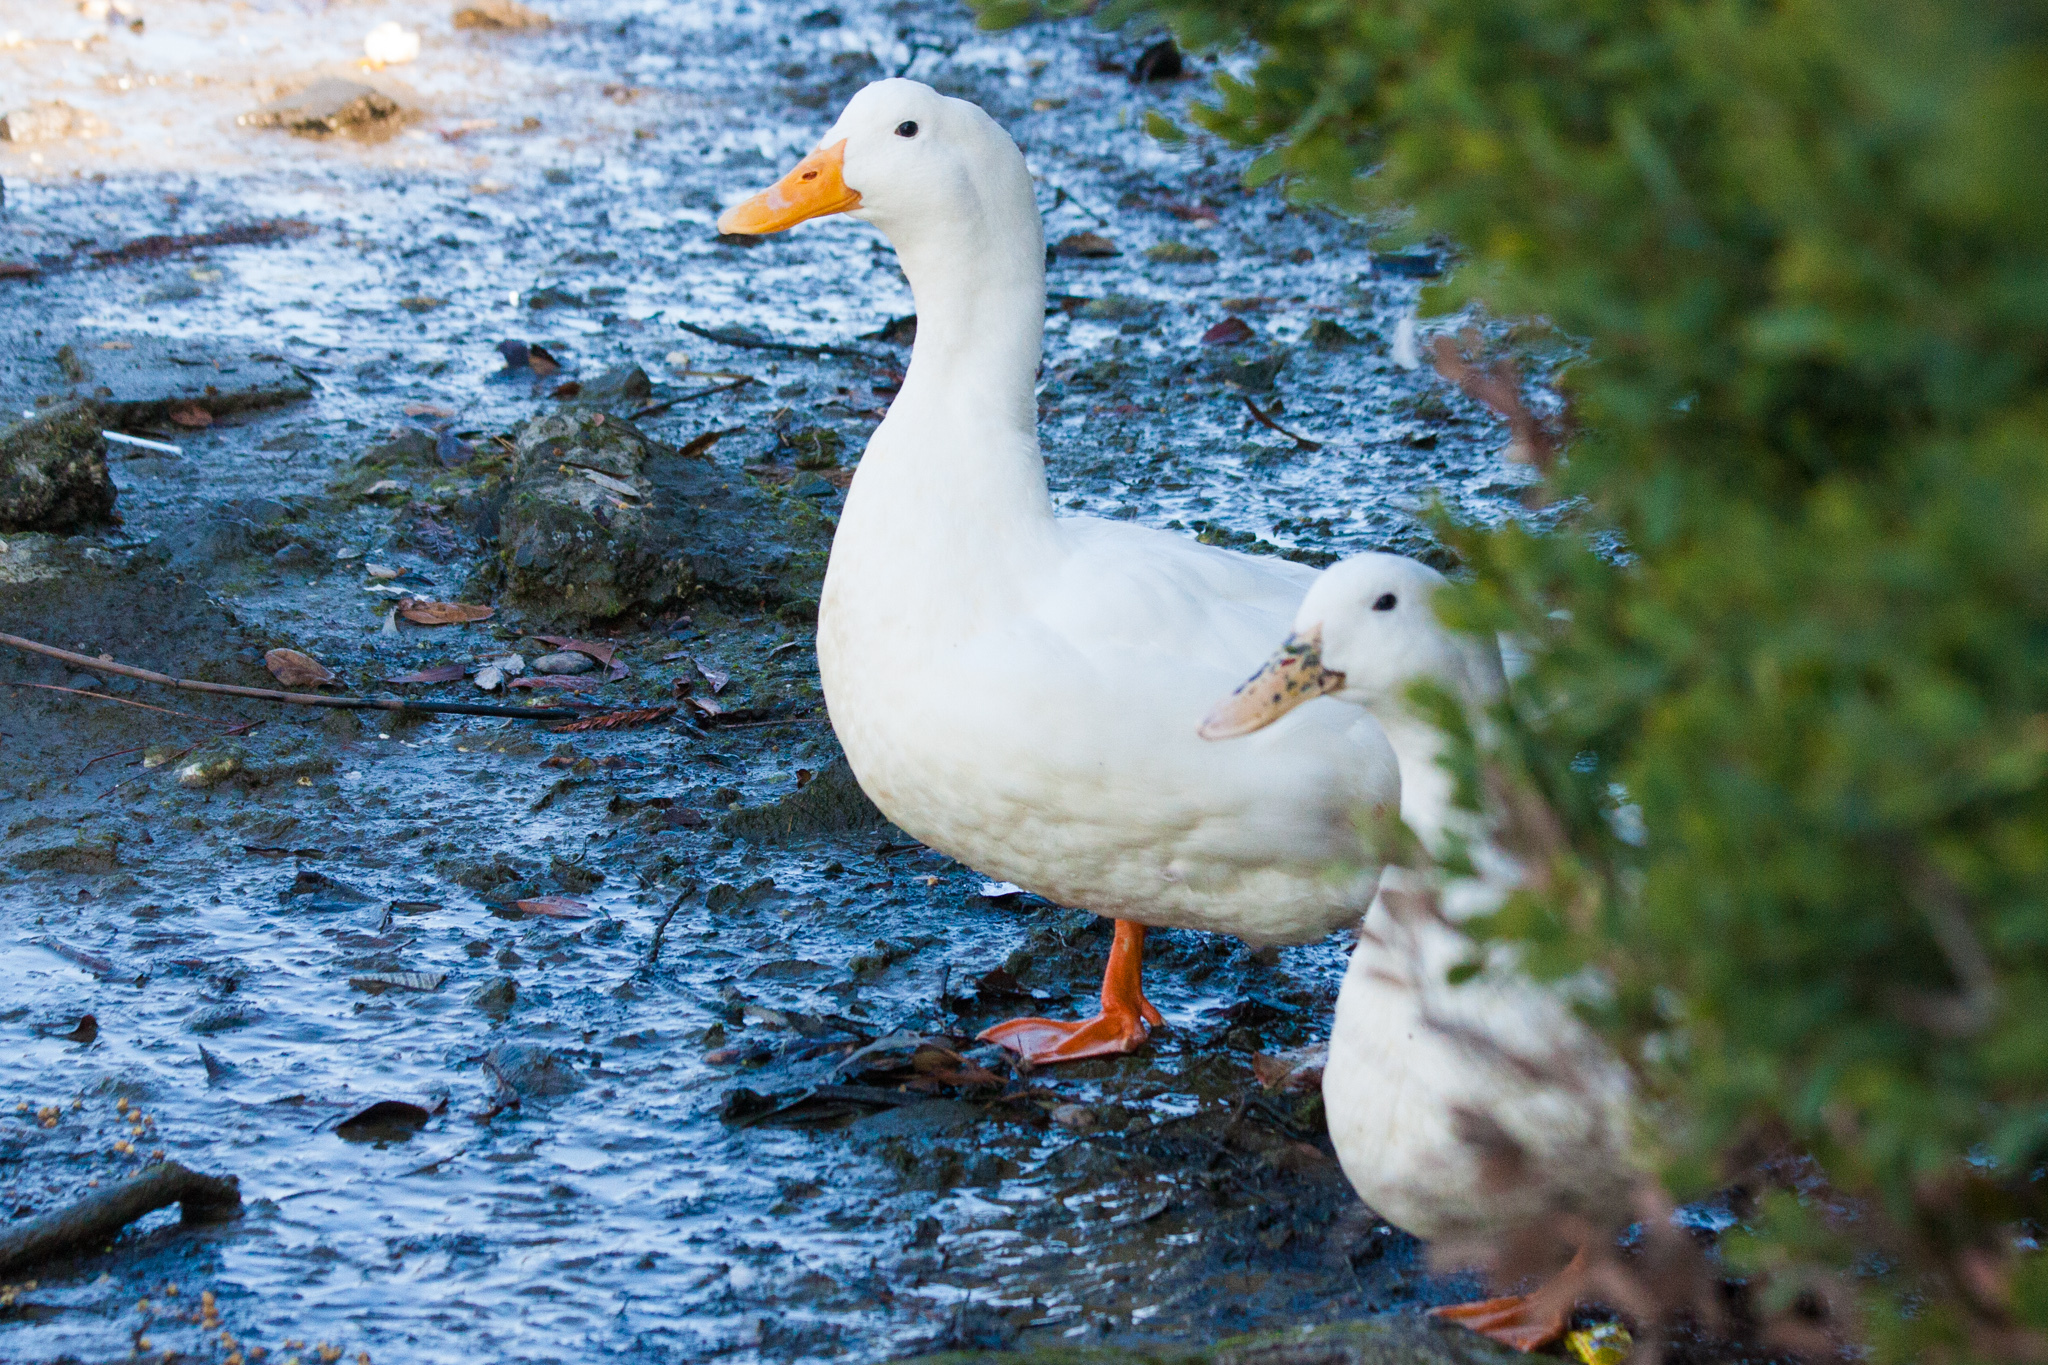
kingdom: Animalia
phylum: Chordata
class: Aves
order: Anseriformes
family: Anatidae
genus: Anas
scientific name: Anas platyrhynchos
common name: Mallard
